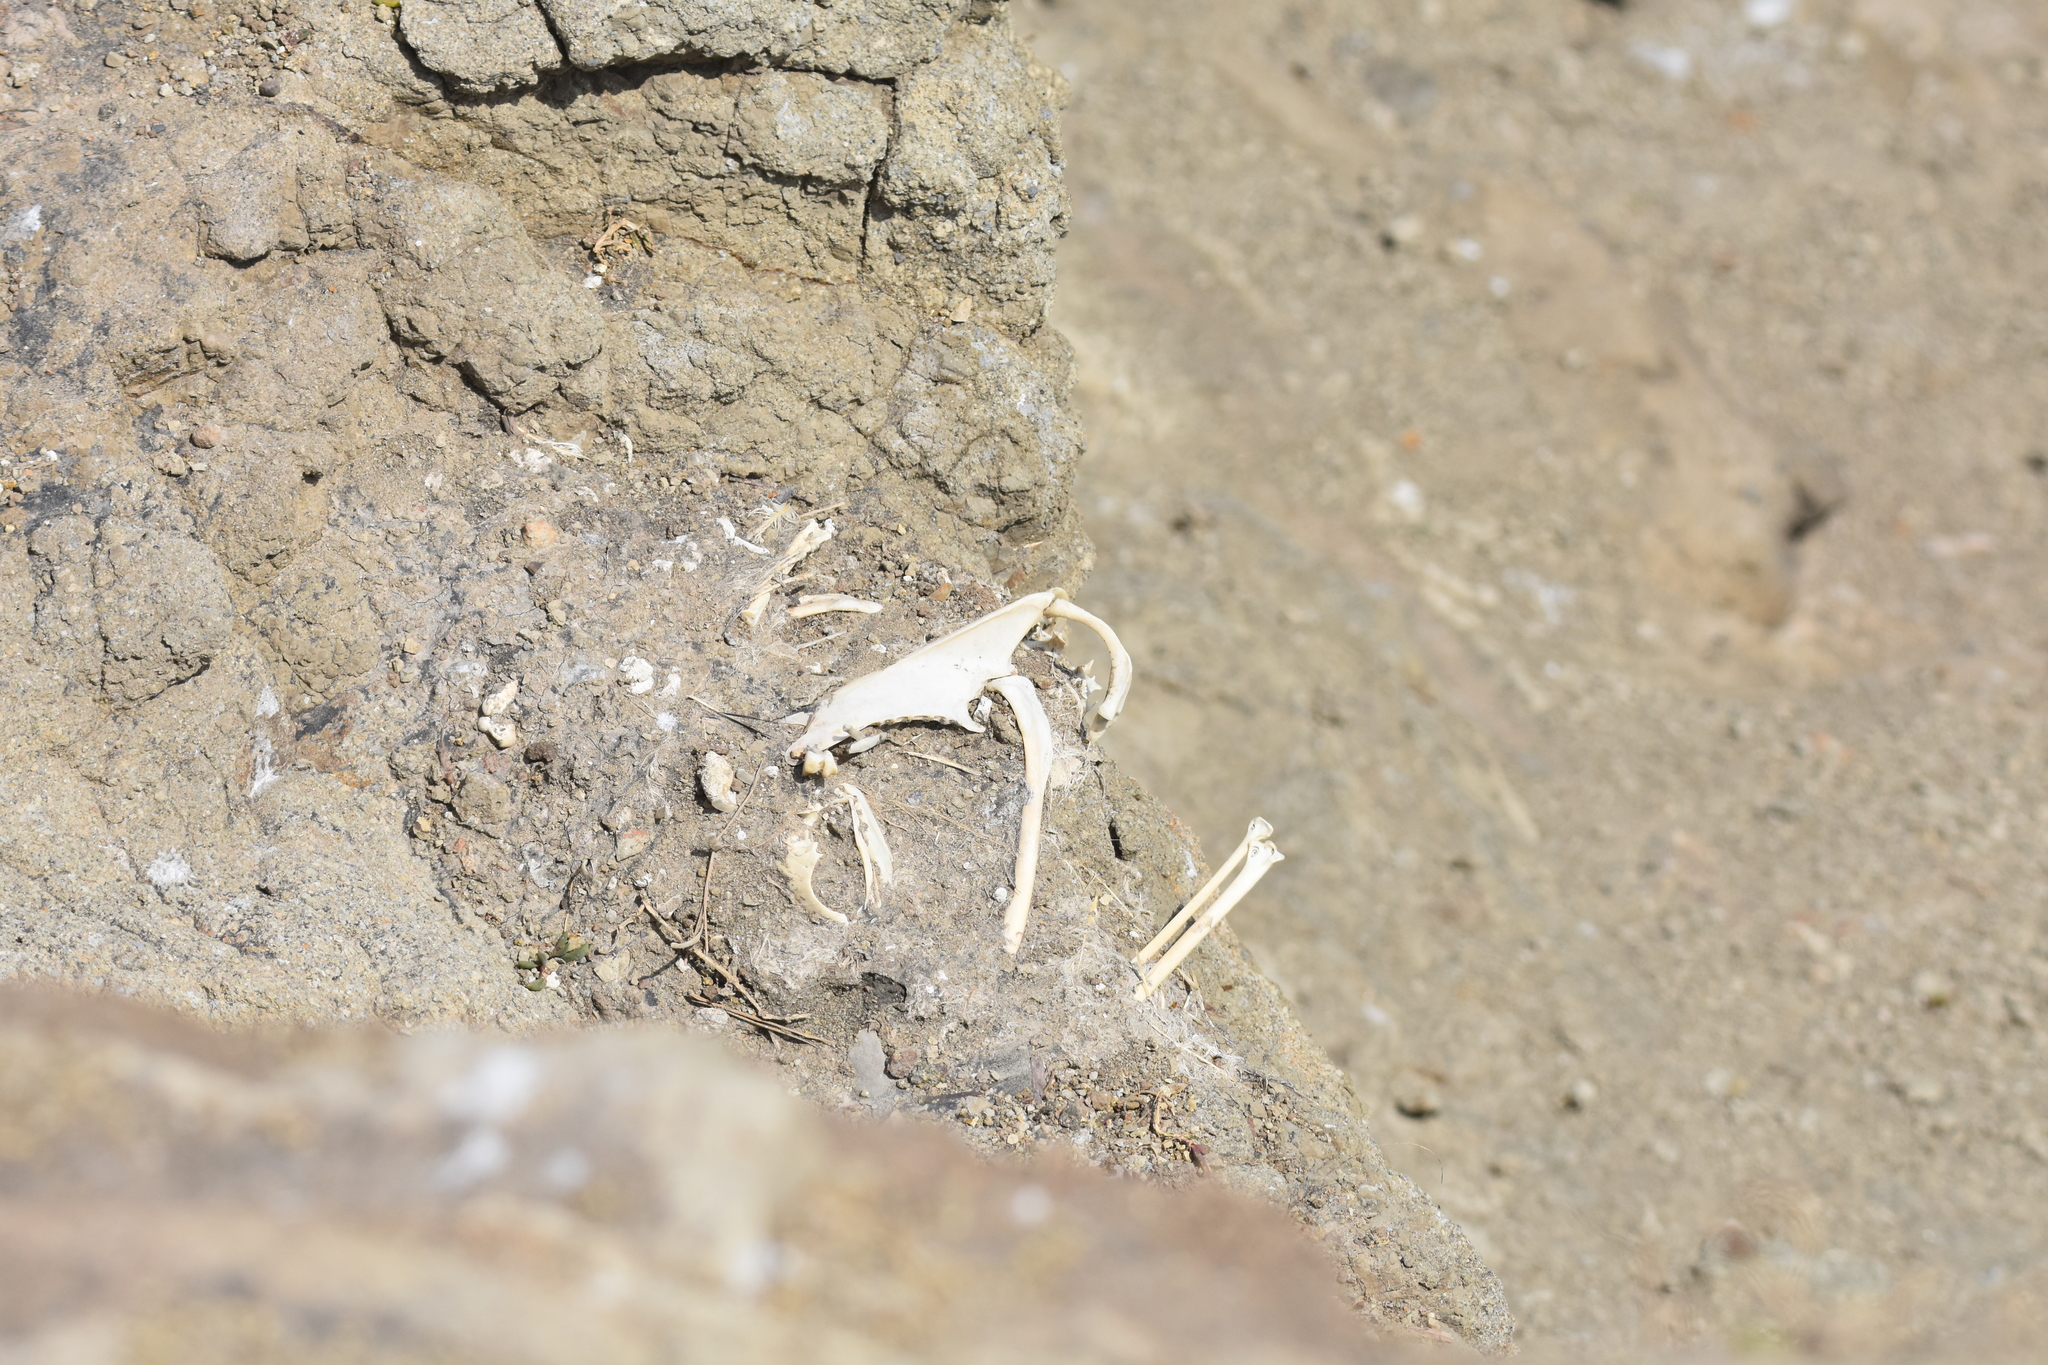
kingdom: Animalia
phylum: Chordata
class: Aves
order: Suliformes
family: Sulidae
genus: Morus
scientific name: Morus serrator
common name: Australasian gannet
